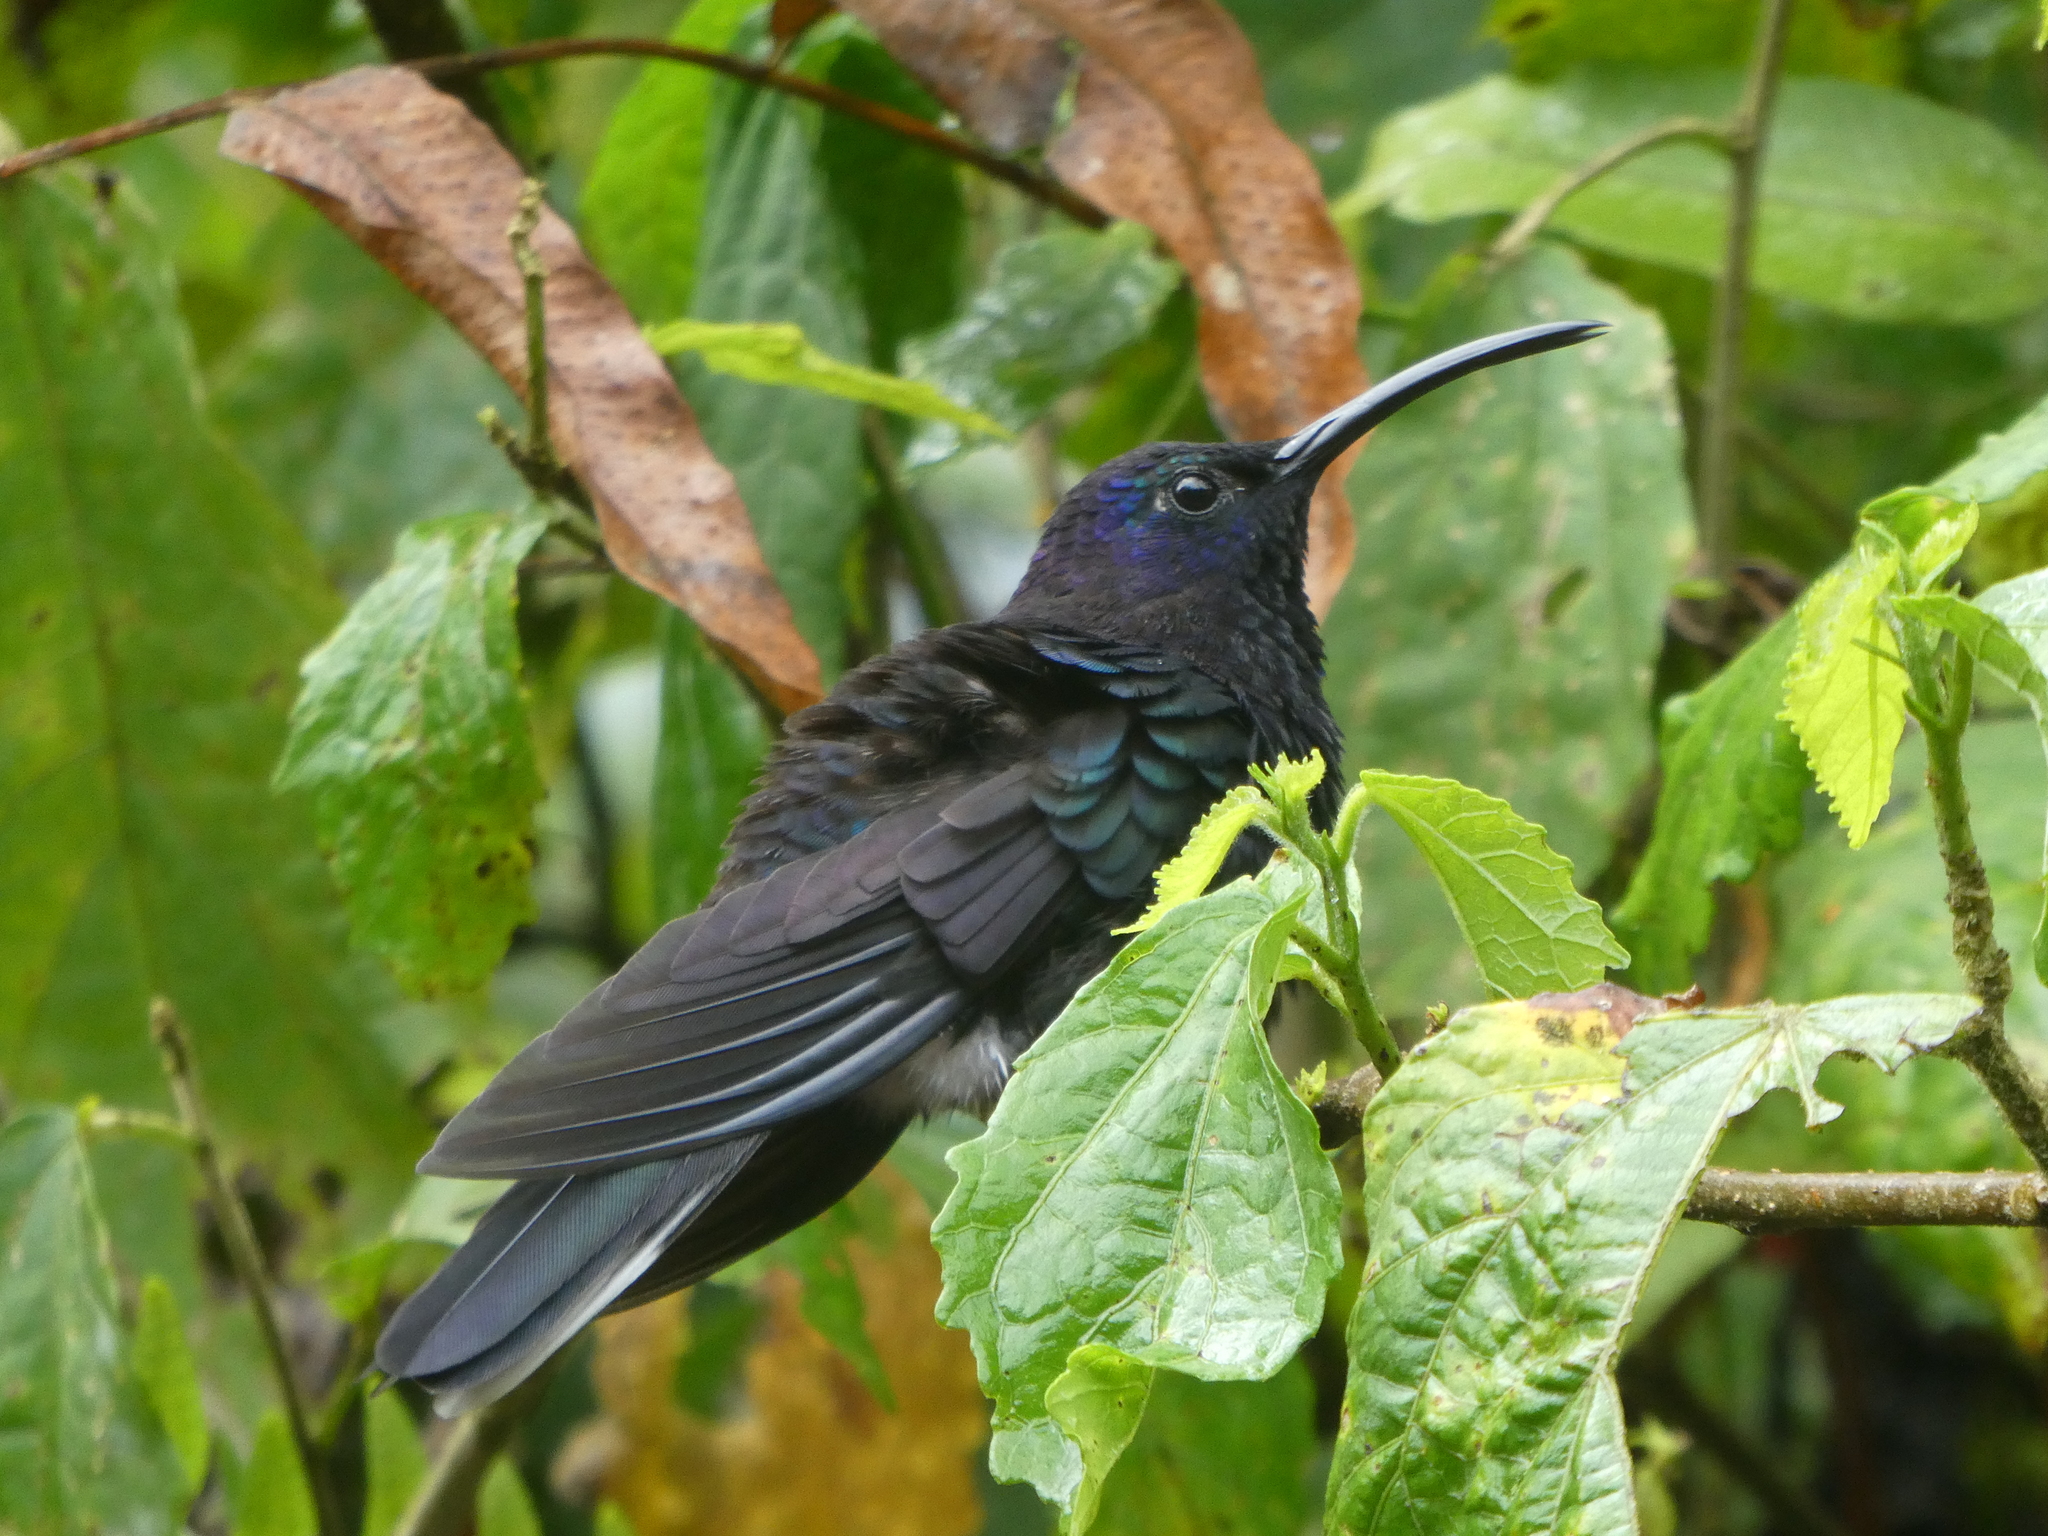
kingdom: Animalia
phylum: Chordata
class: Aves
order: Apodiformes
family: Trochilidae
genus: Campylopterus
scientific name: Campylopterus hemileucurus
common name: Violet sabrewing
